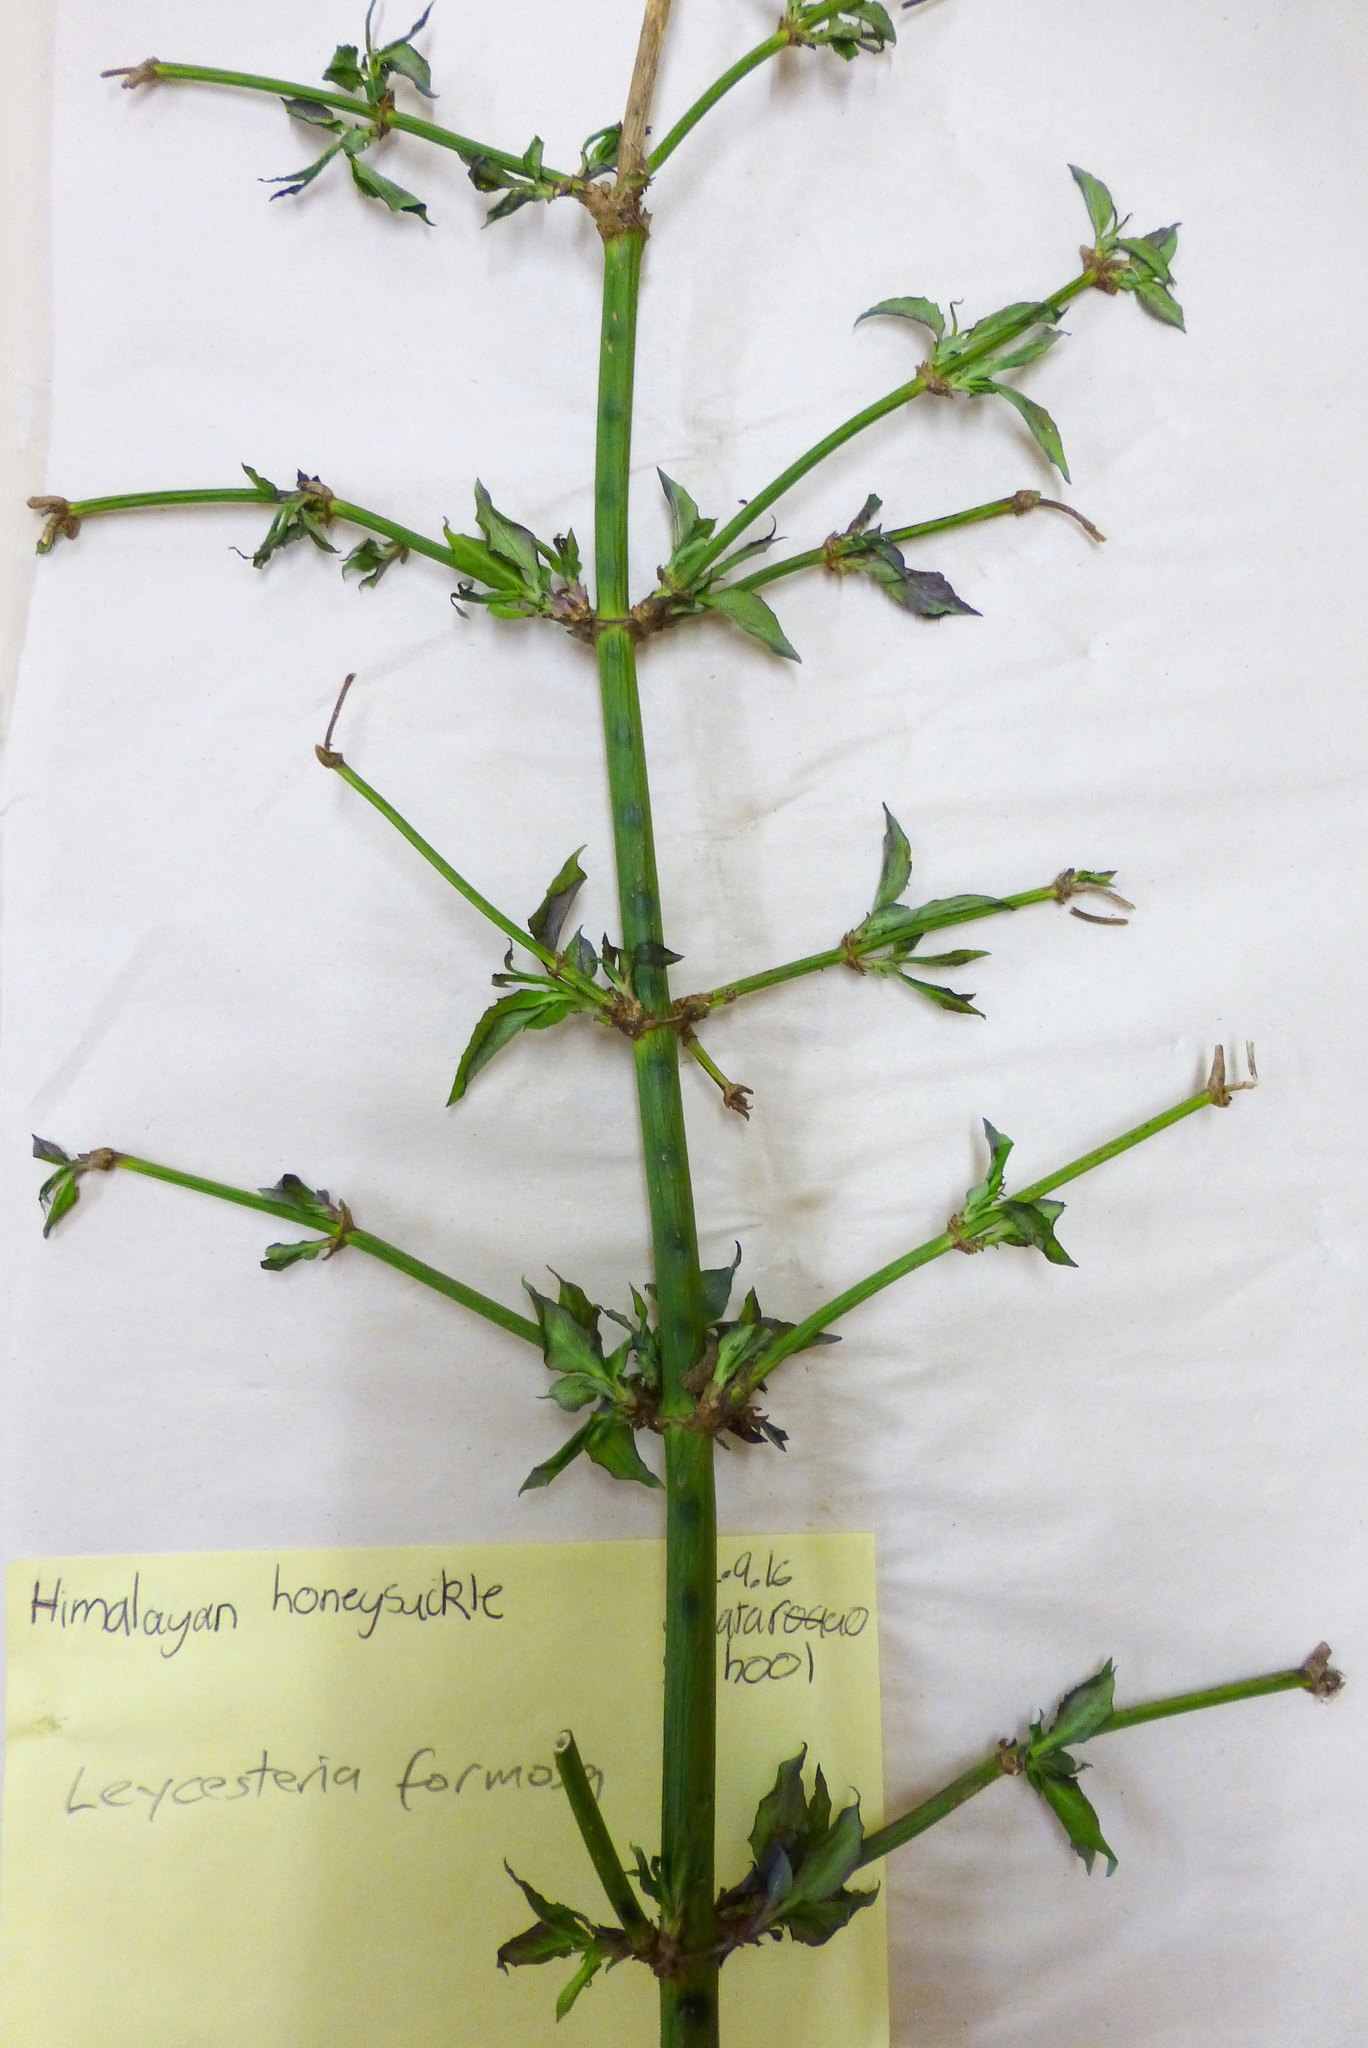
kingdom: Plantae
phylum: Tracheophyta
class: Magnoliopsida
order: Dipsacales
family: Caprifoliaceae
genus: Leycesteria
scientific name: Leycesteria formosa
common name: Himalayan honeysuckle
